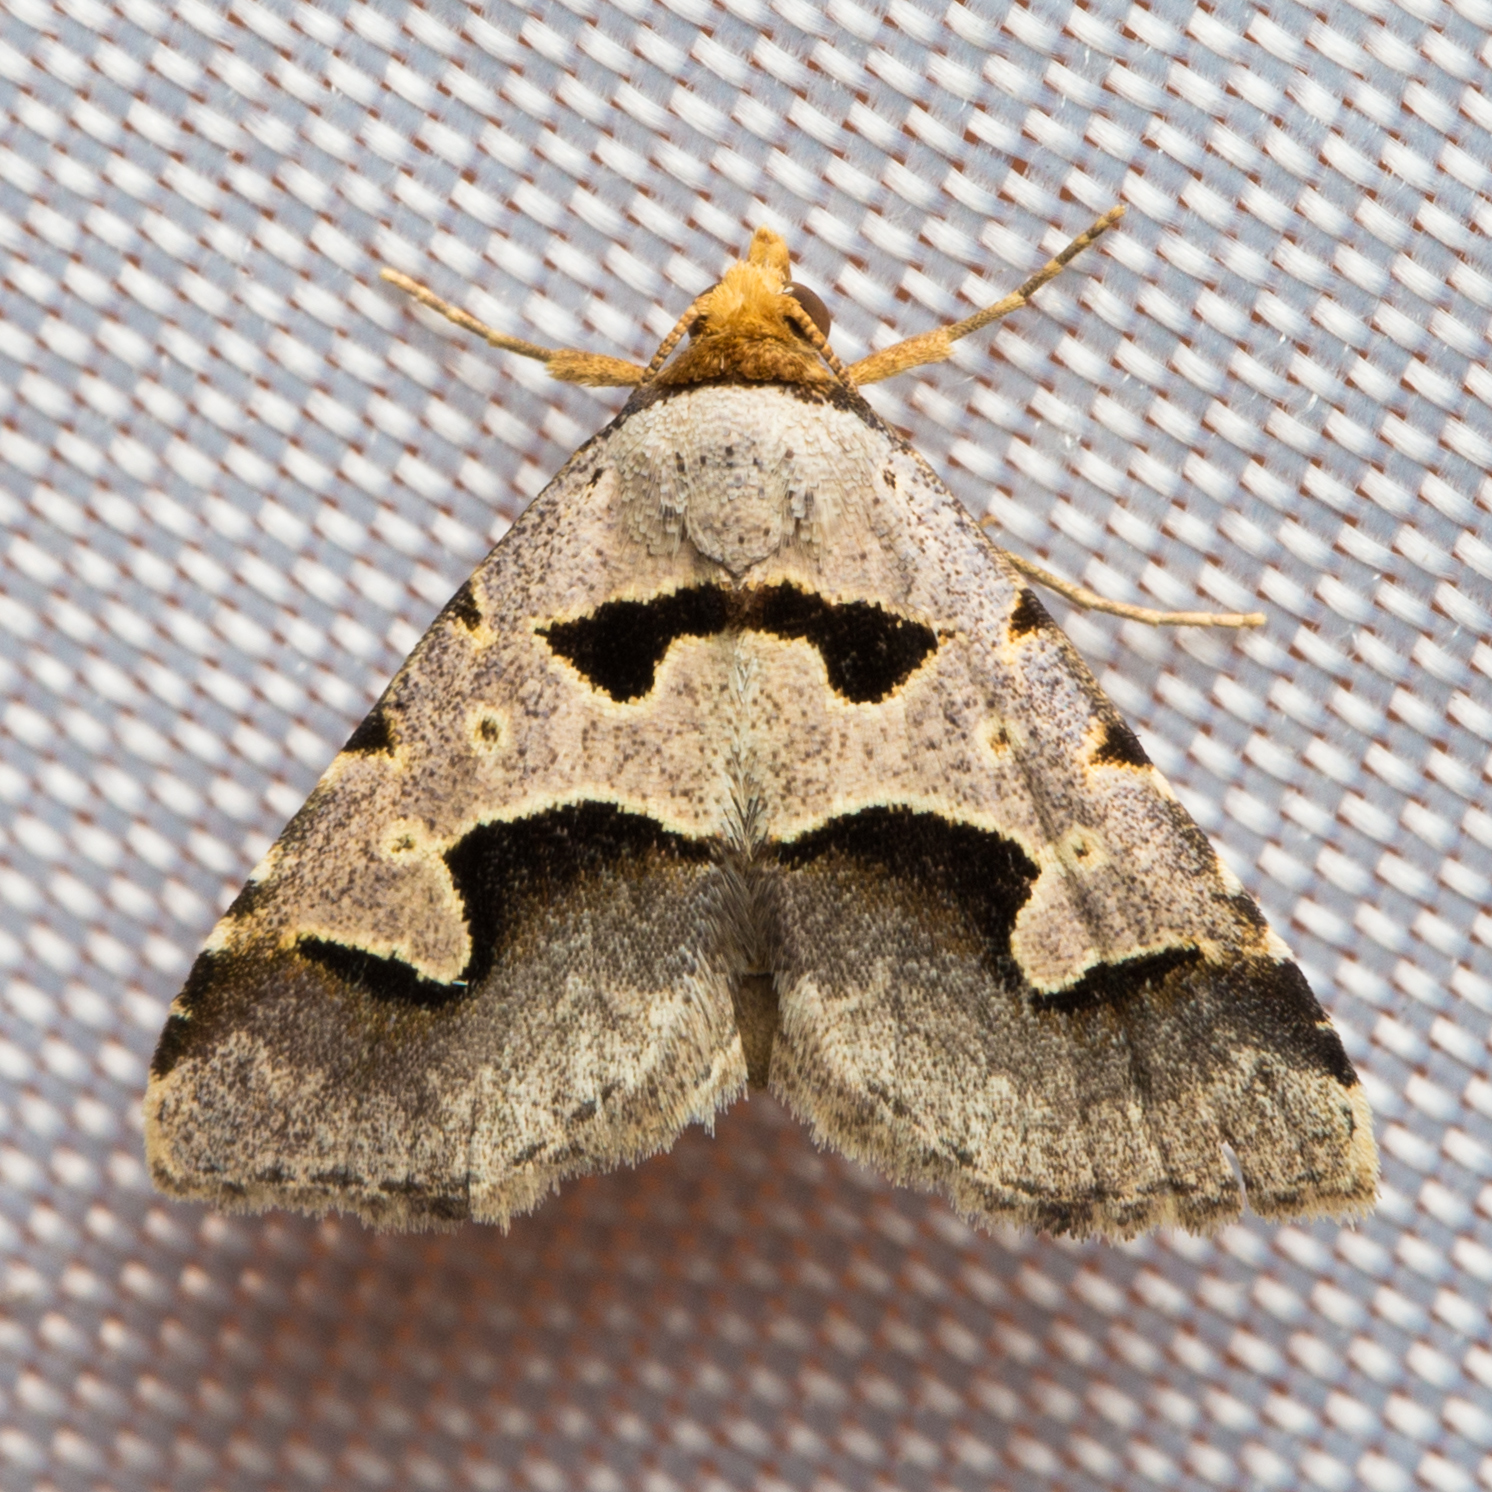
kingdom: Animalia
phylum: Arthropoda
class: Insecta
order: Lepidoptera
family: Erebidae
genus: Baniana
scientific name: Baniana minor
